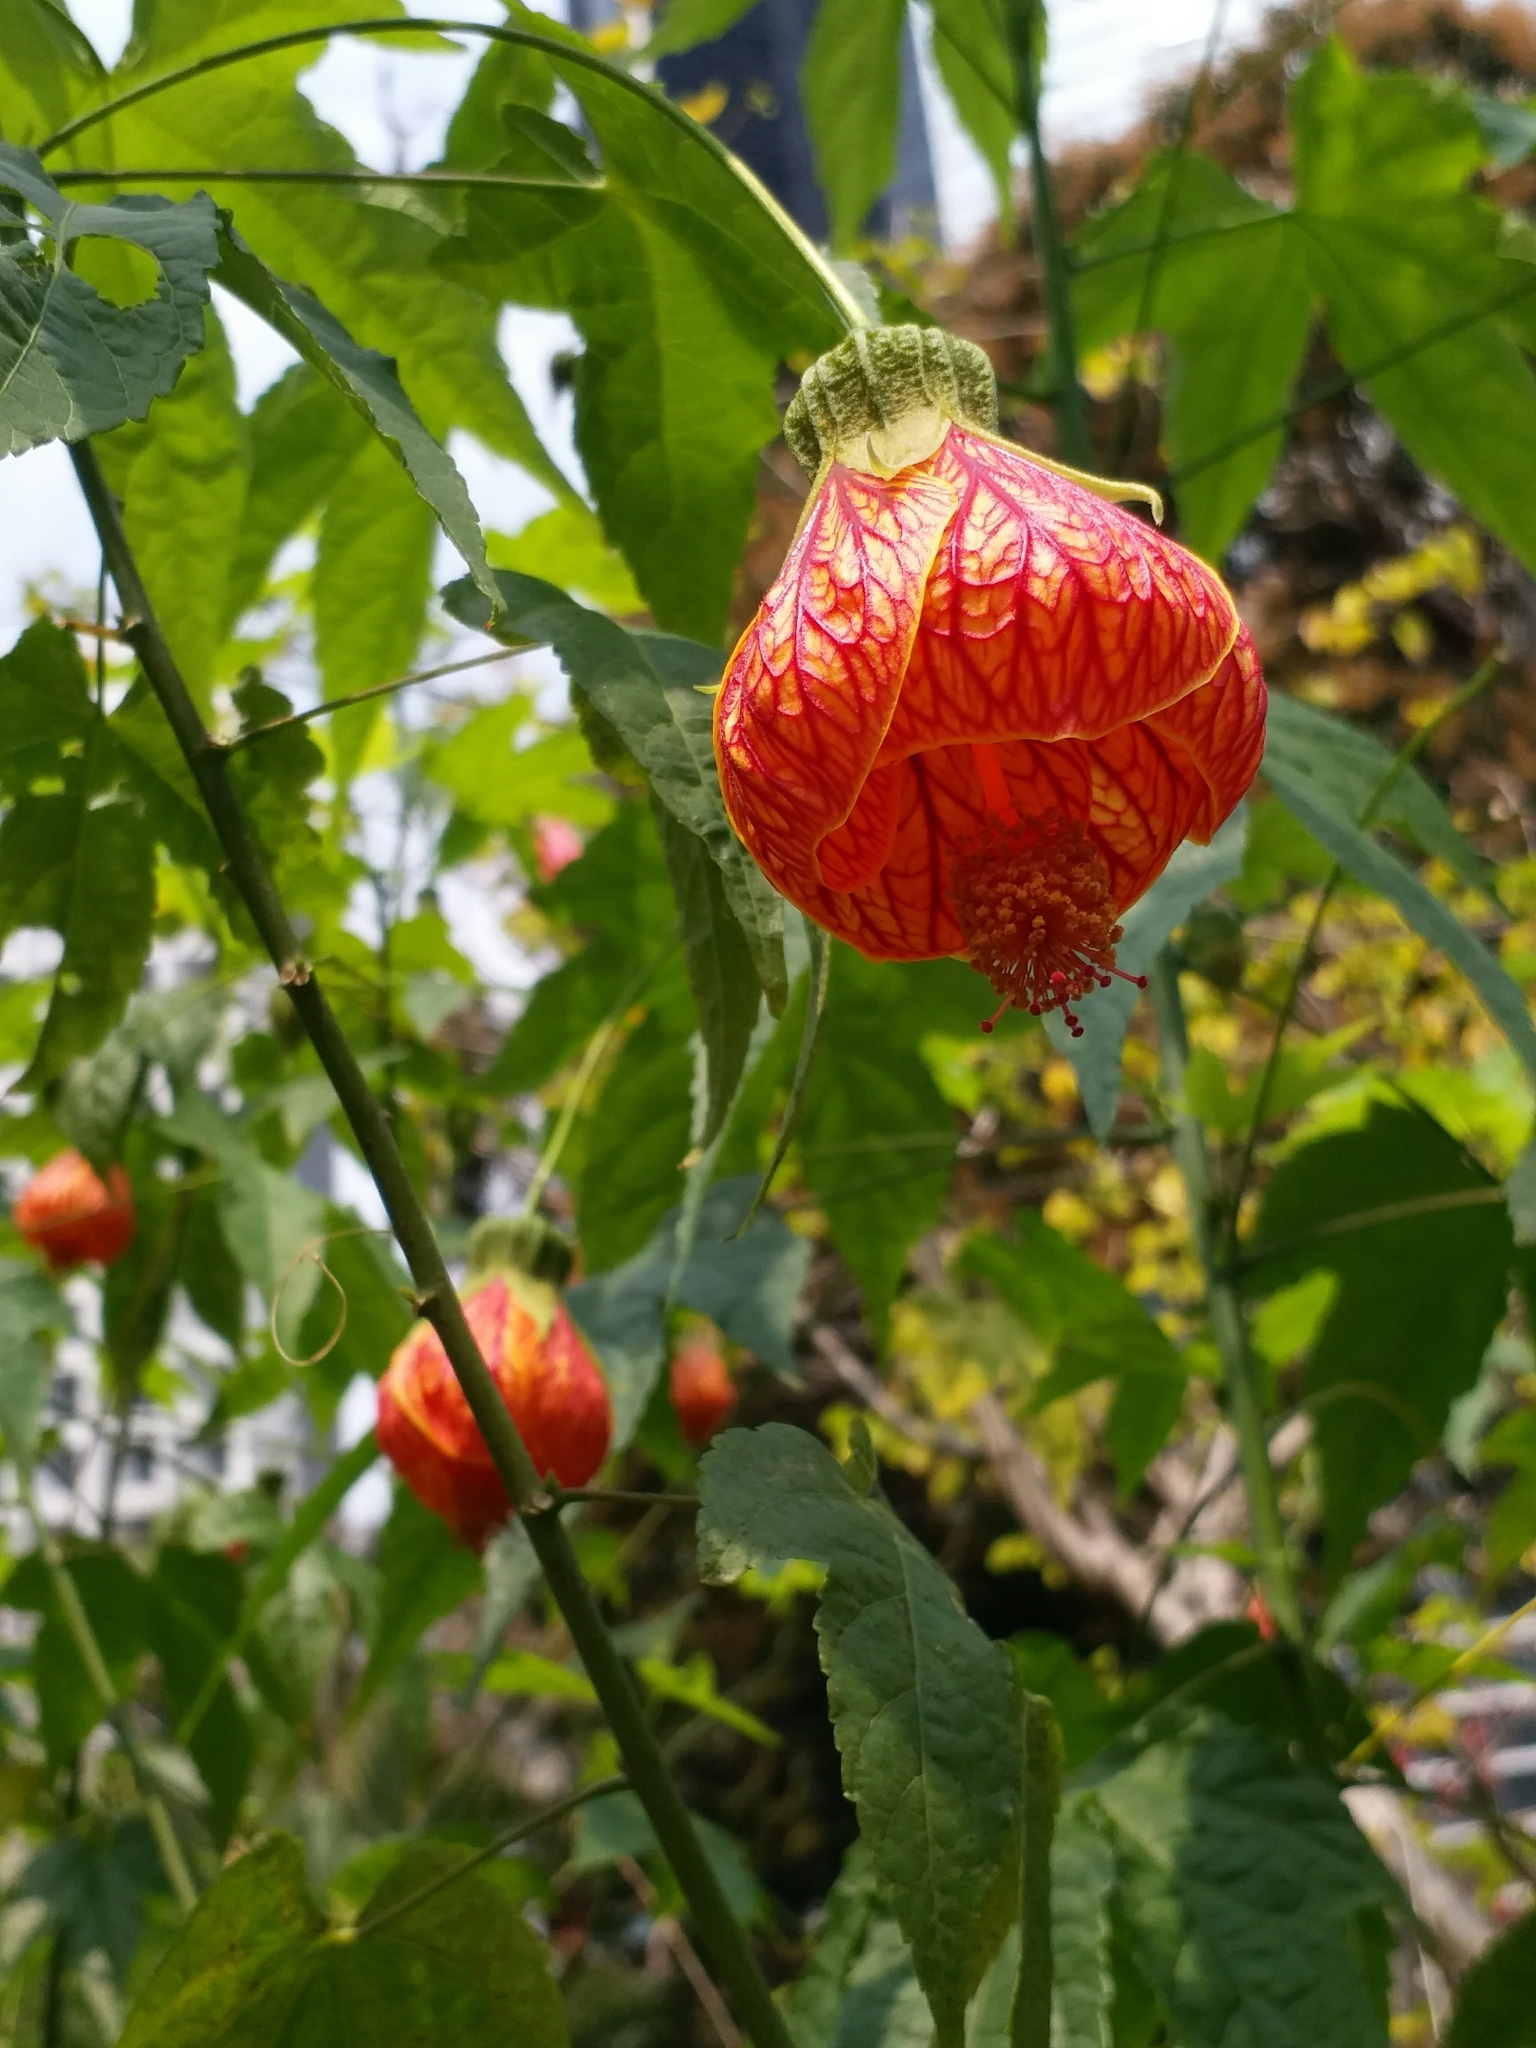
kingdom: Plantae
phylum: Tracheophyta
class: Magnoliopsida
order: Malvales
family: Malvaceae
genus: Callianthe
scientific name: Callianthe picta
